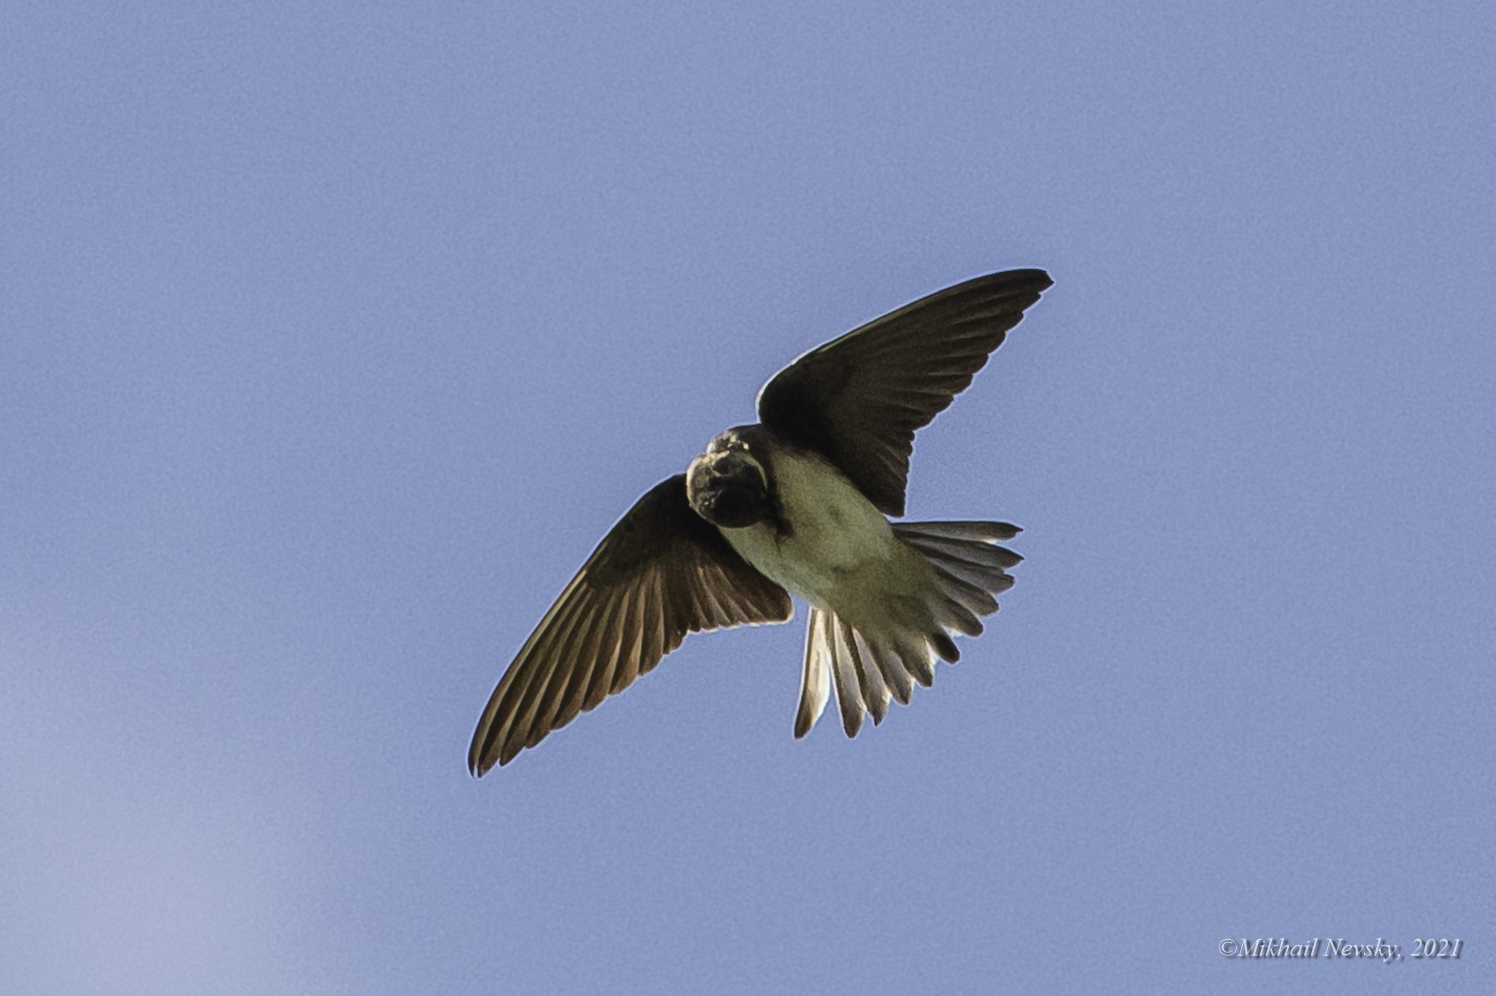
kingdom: Animalia
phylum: Chordata
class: Aves
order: Passeriformes
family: Hirundinidae
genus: Riparia
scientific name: Riparia riparia
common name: Sand martin
